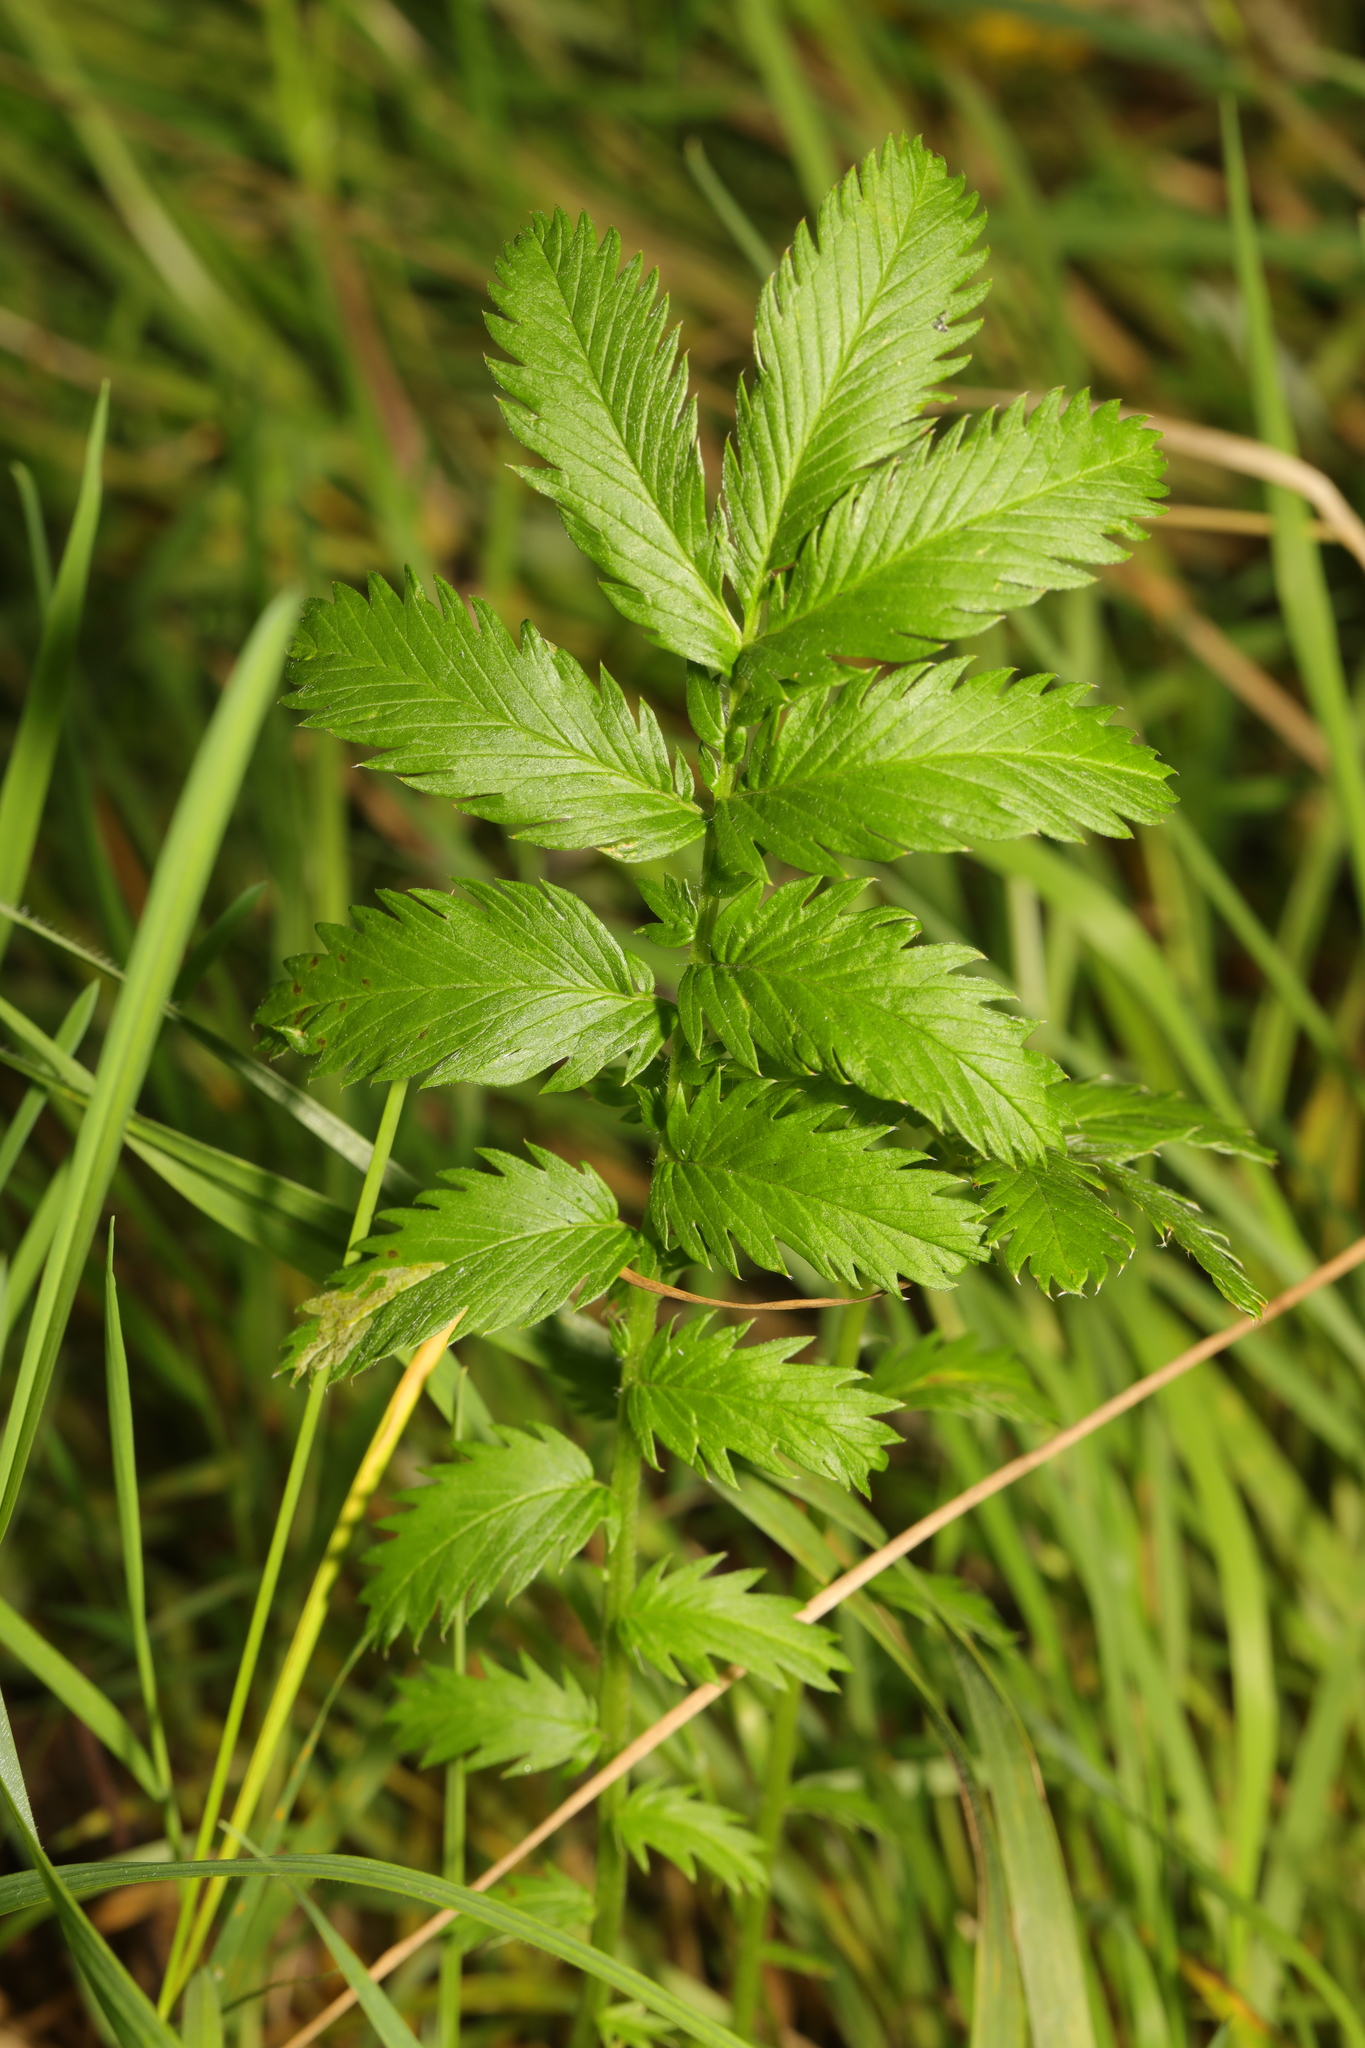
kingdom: Plantae
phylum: Tracheophyta
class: Magnoliopsida
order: Rosales
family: Rosaceae
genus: Argentina
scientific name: Argentina anserina
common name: Common silverweed
